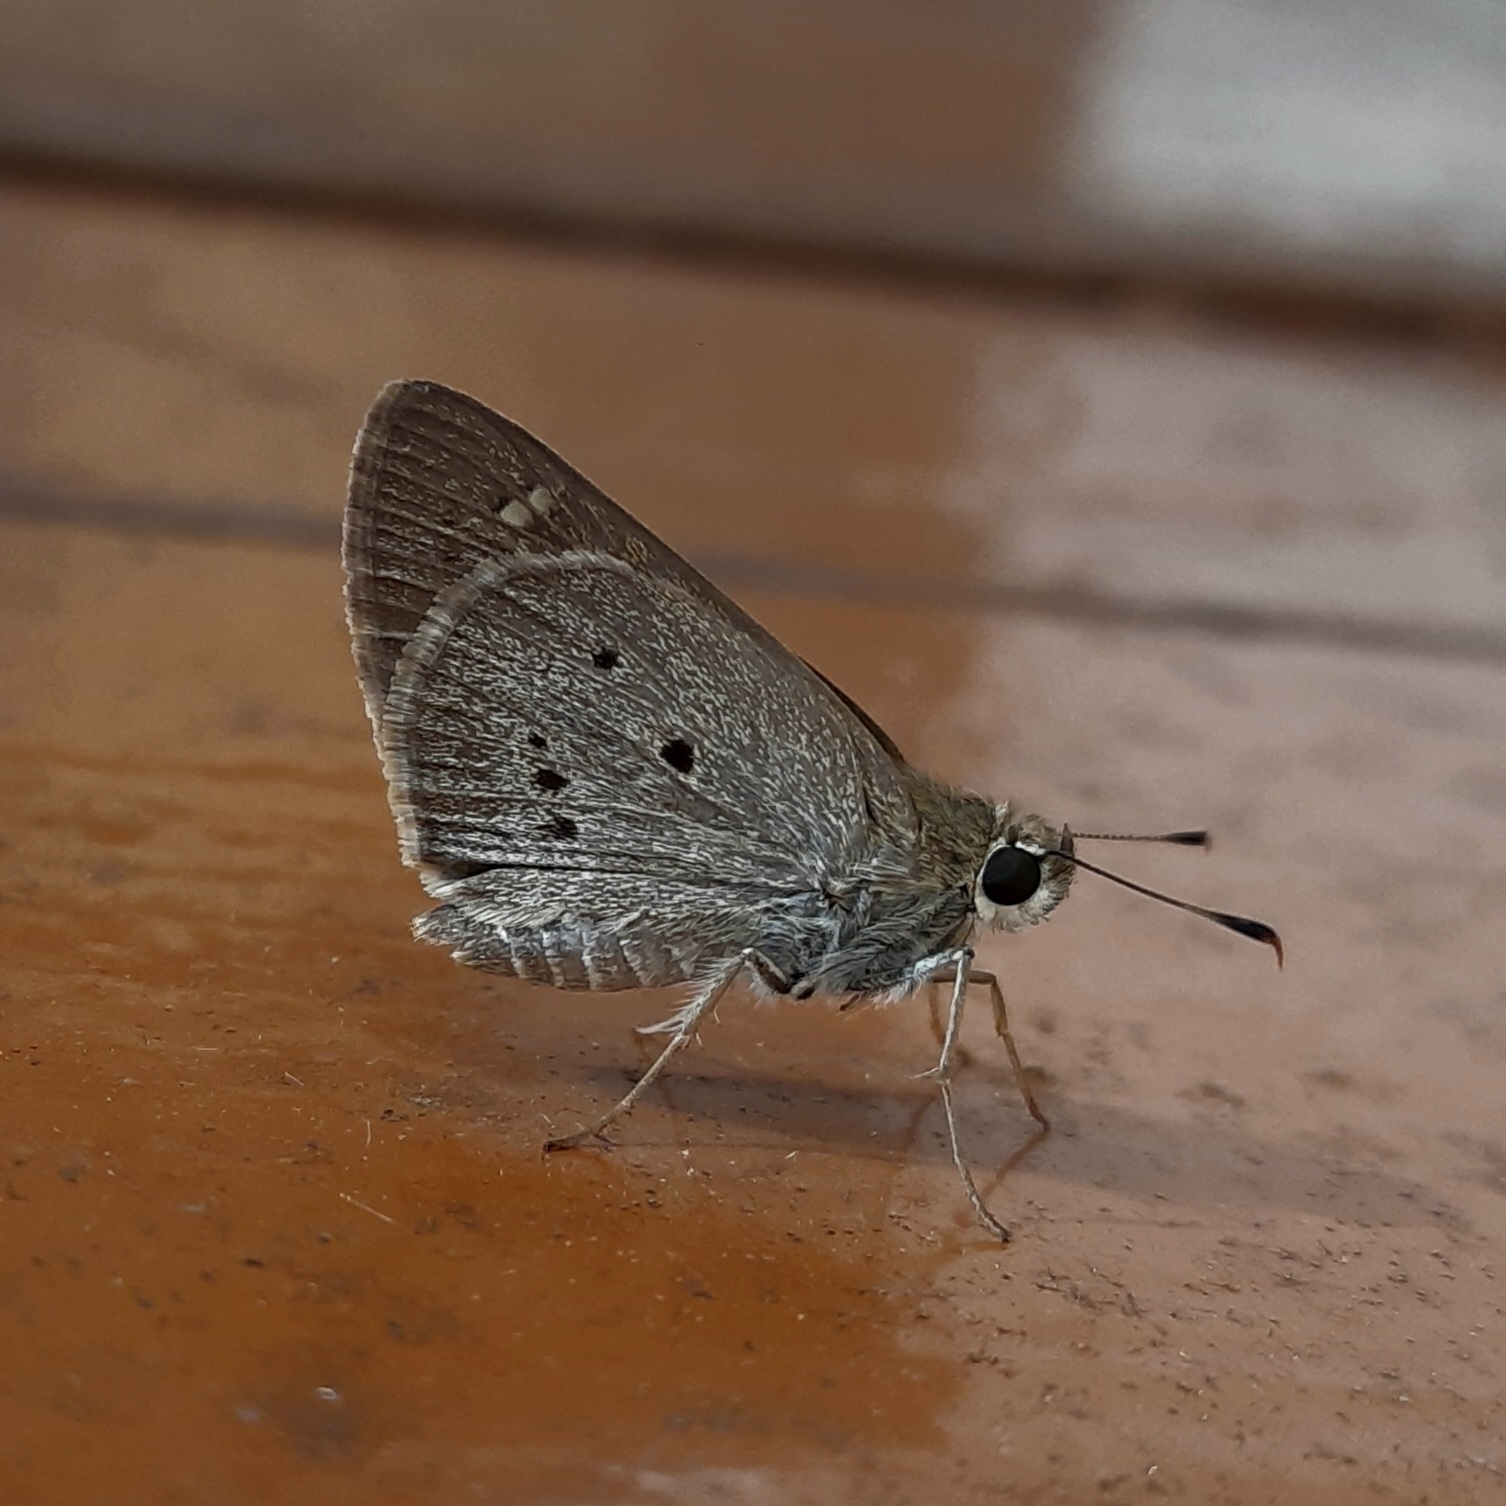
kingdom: Animalia
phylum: Arthropoda
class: Insecta
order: Lepidoptera
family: Hesperiidae
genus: Suastus
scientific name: Suastus gremius
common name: Indian palm bob
